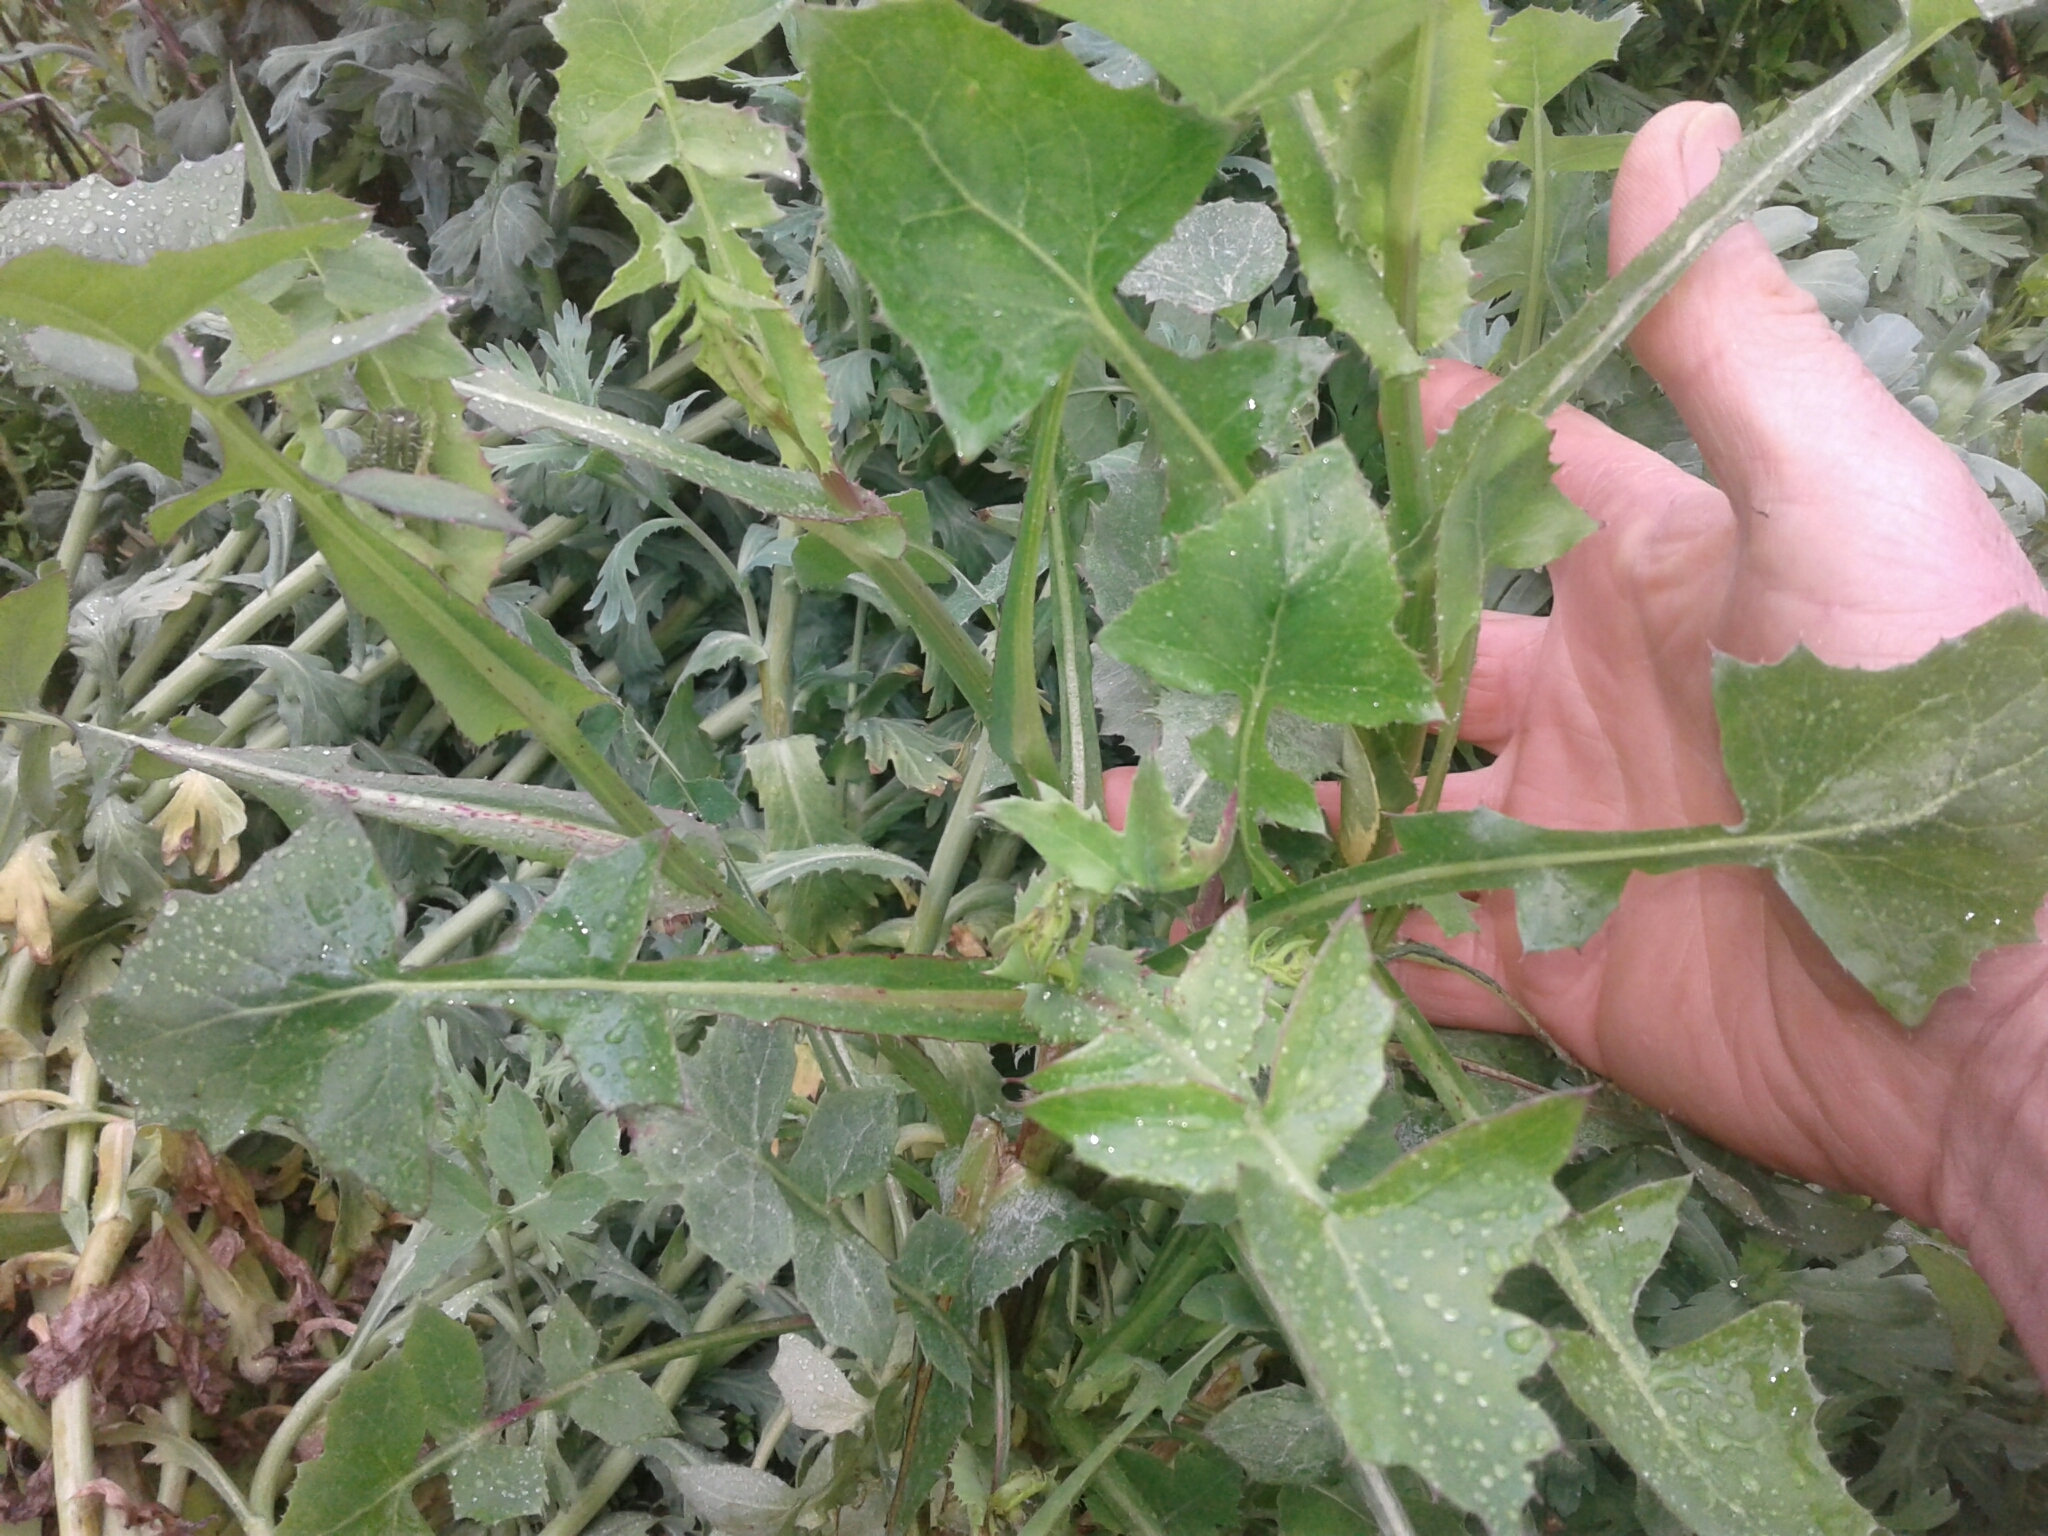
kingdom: Plantae
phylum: Tracheophyta
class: Magnoliopsida
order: Asterales
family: Asteraceae
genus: Sonchus
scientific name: Sonchus oleraceus
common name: Common sowthistle
